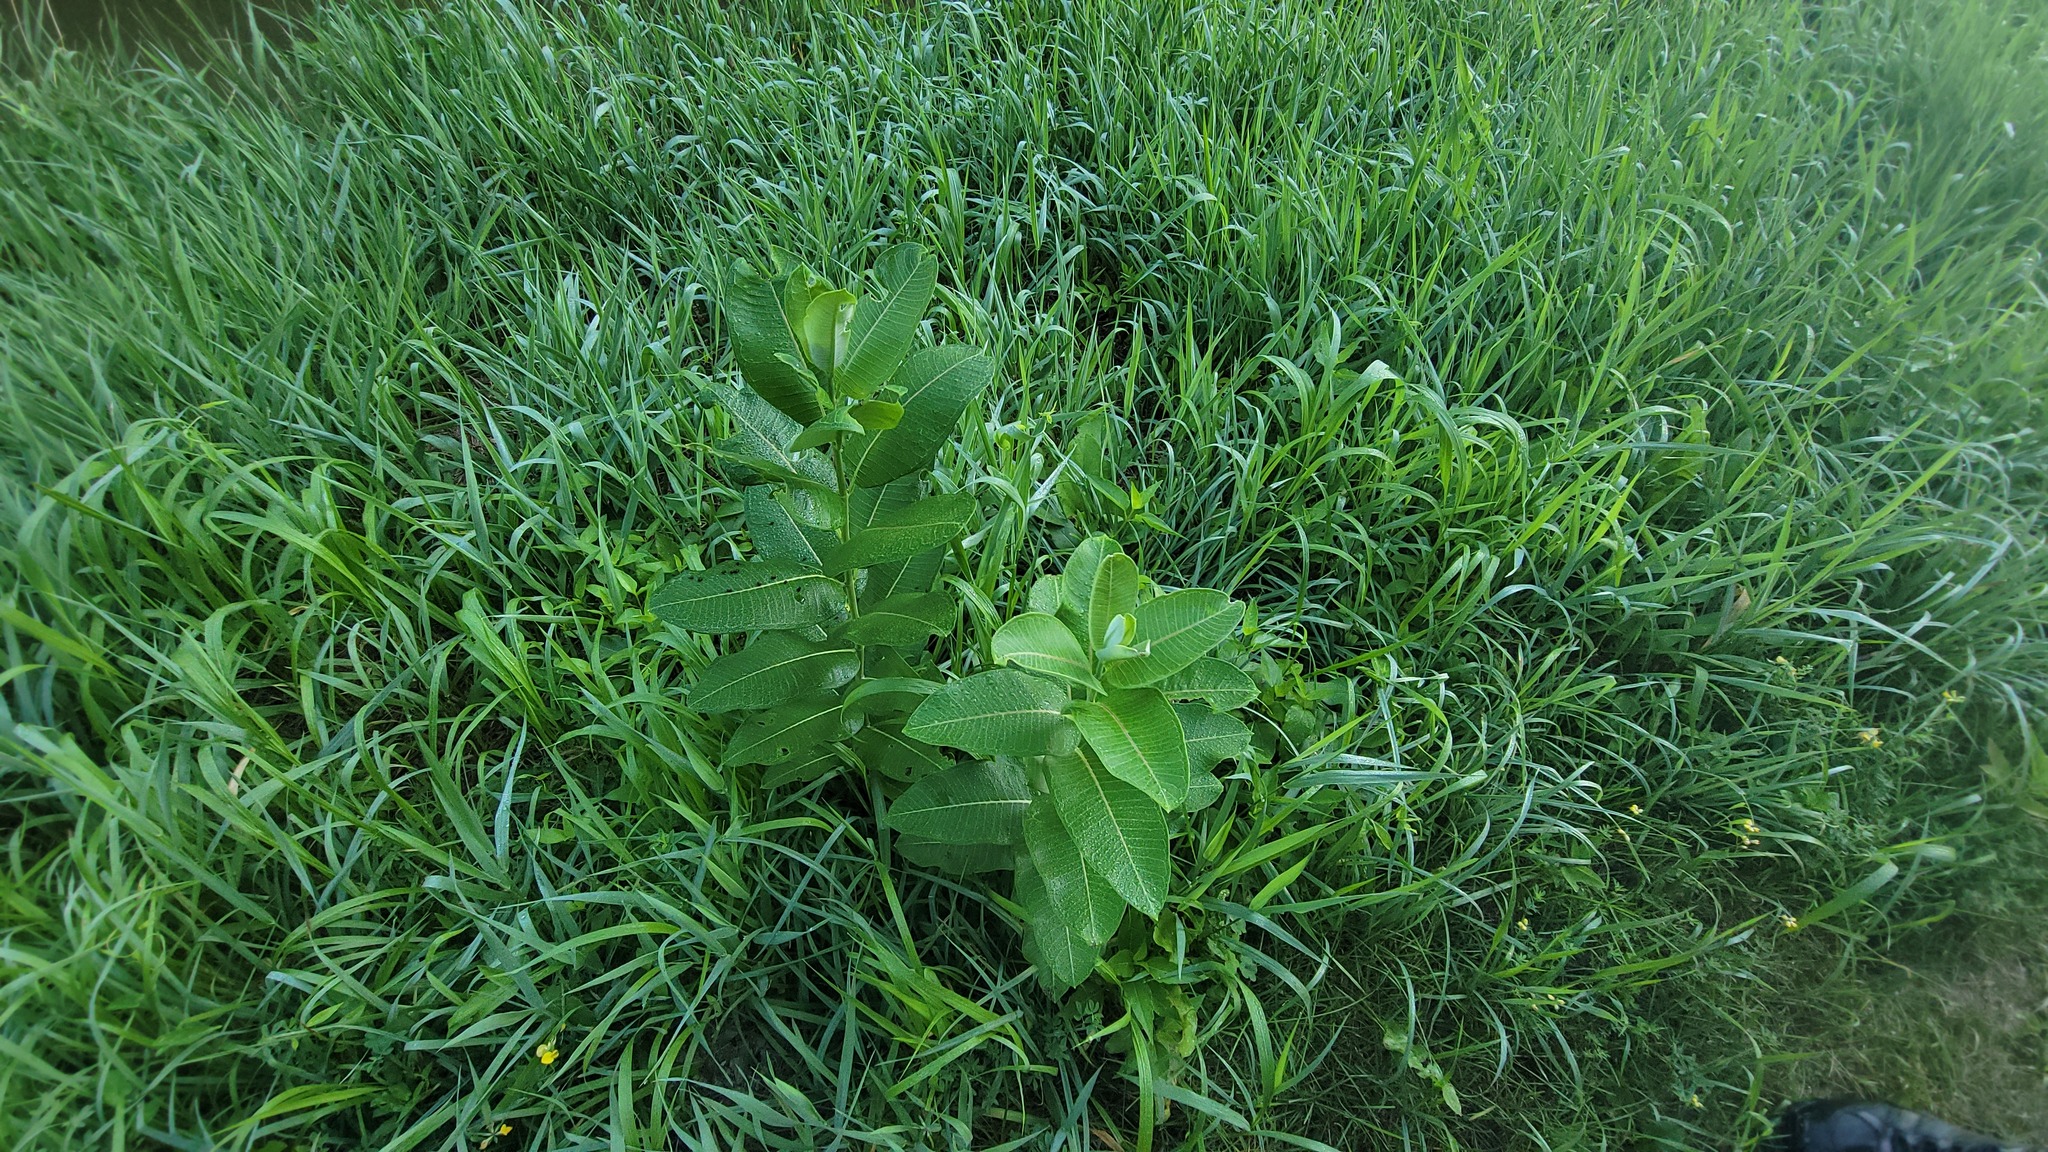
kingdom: Plantae
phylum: Tracheophyta
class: Magnoliopsida
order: Gentianales
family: Apocynaceae
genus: Asclepias
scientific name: Asclepias syriaca
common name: Common milkweed
